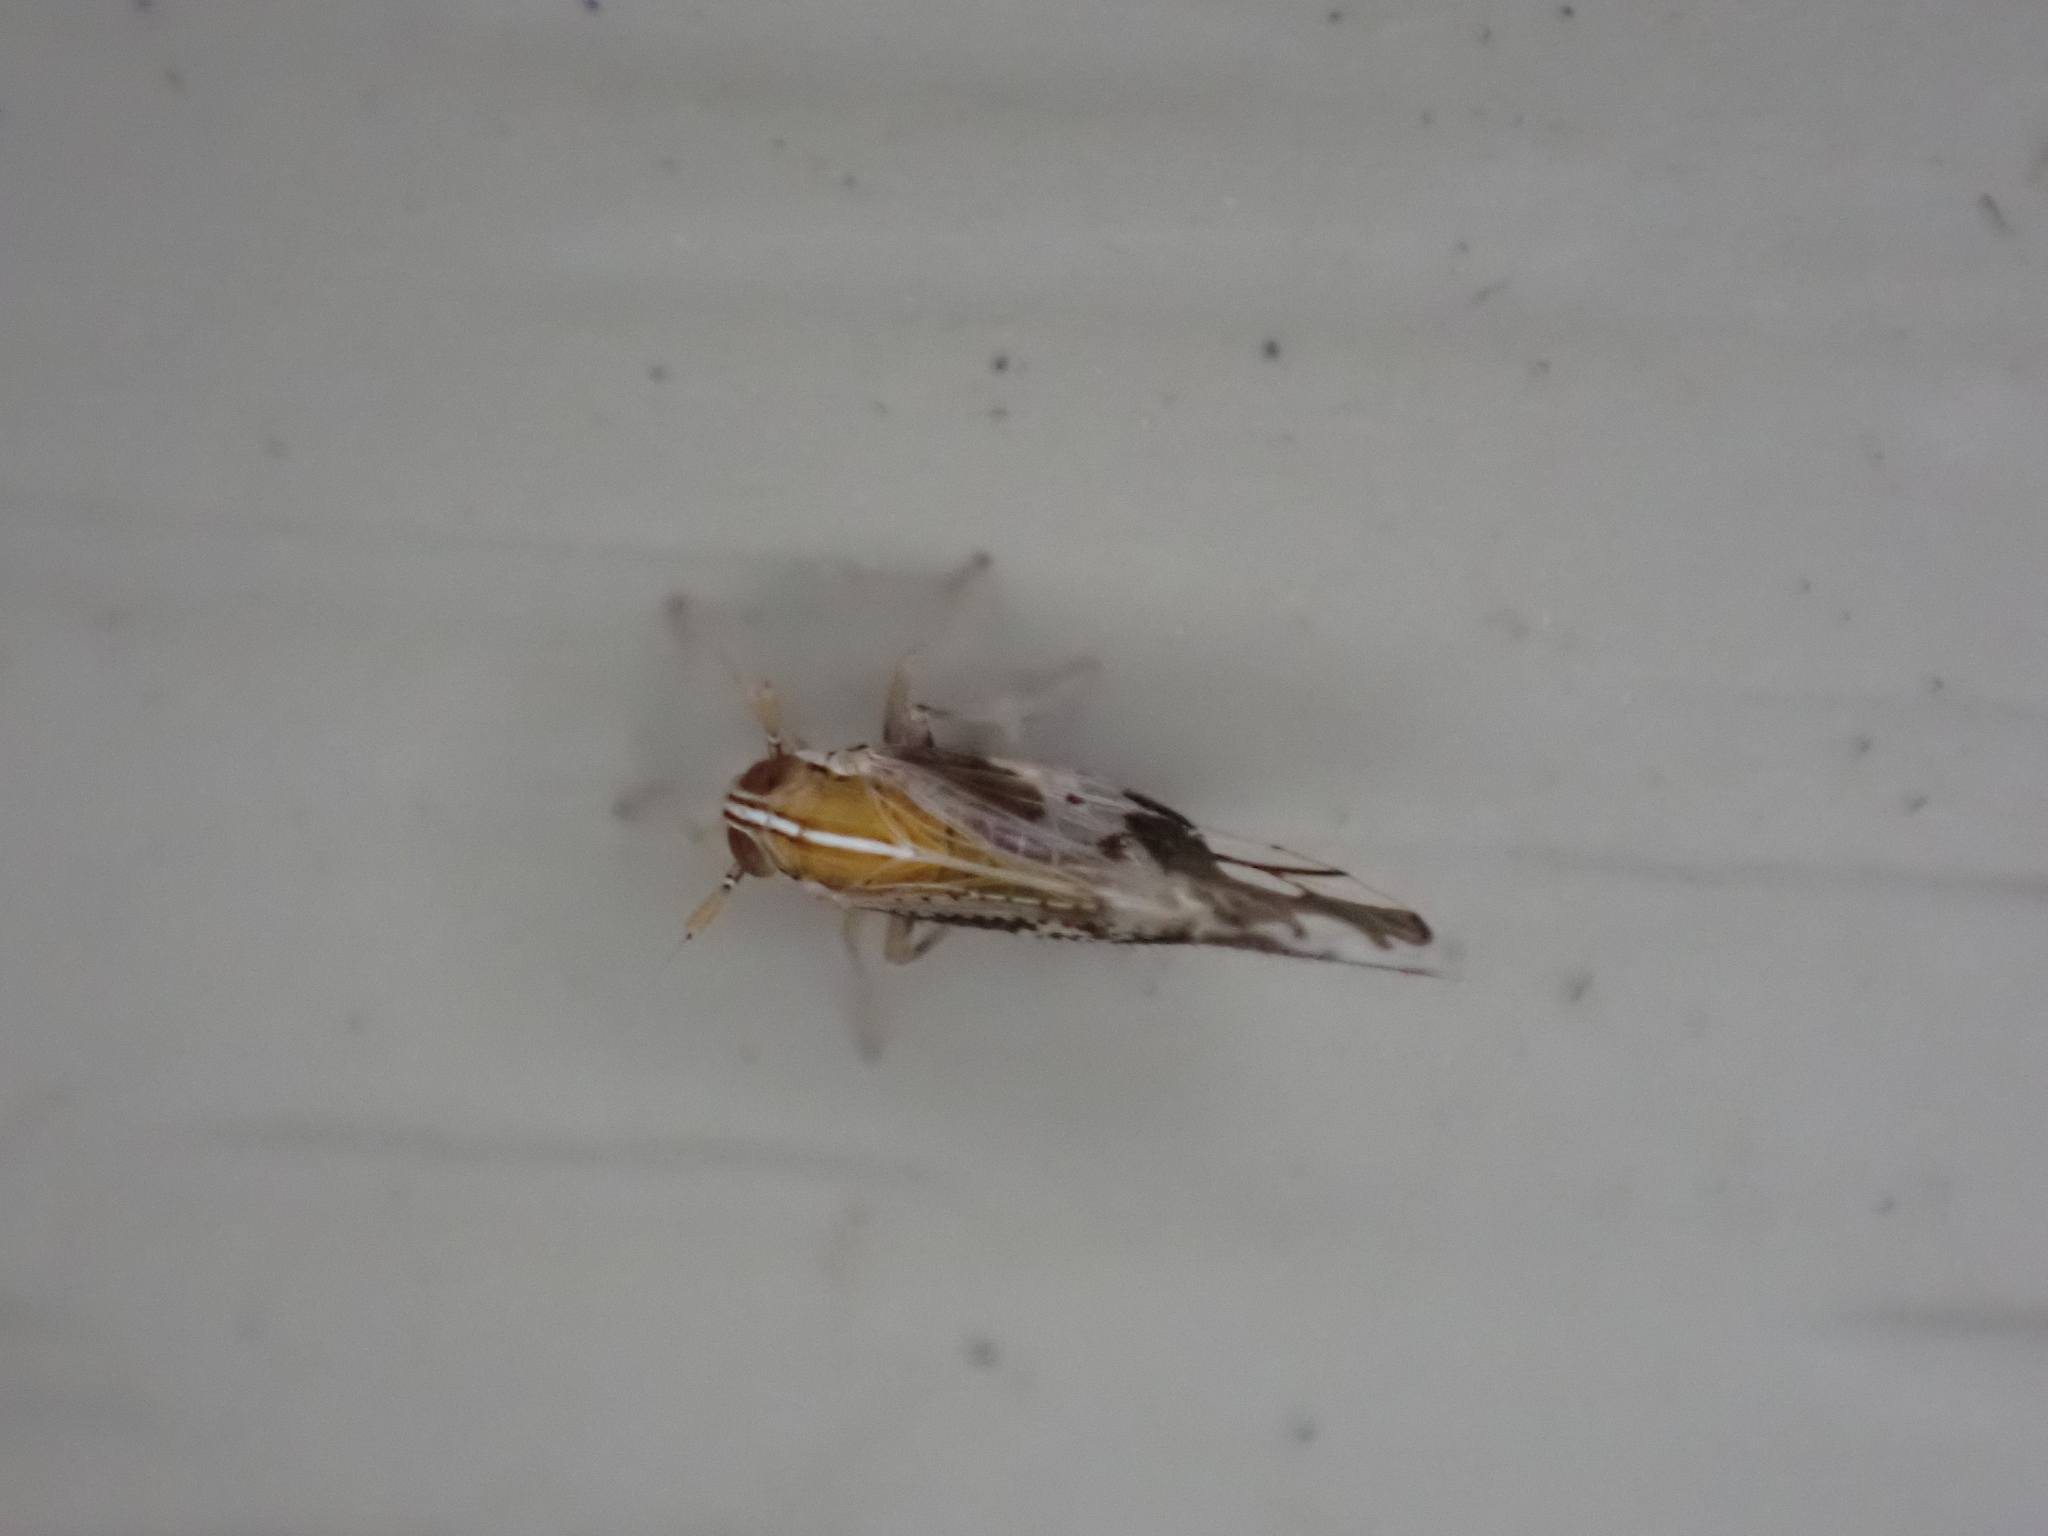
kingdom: Animalia
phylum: Arthropoda
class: Insecta
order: Hemiptera
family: Delphacidae
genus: Liburniella
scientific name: Liburniella ornata
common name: Ornate planthopper
